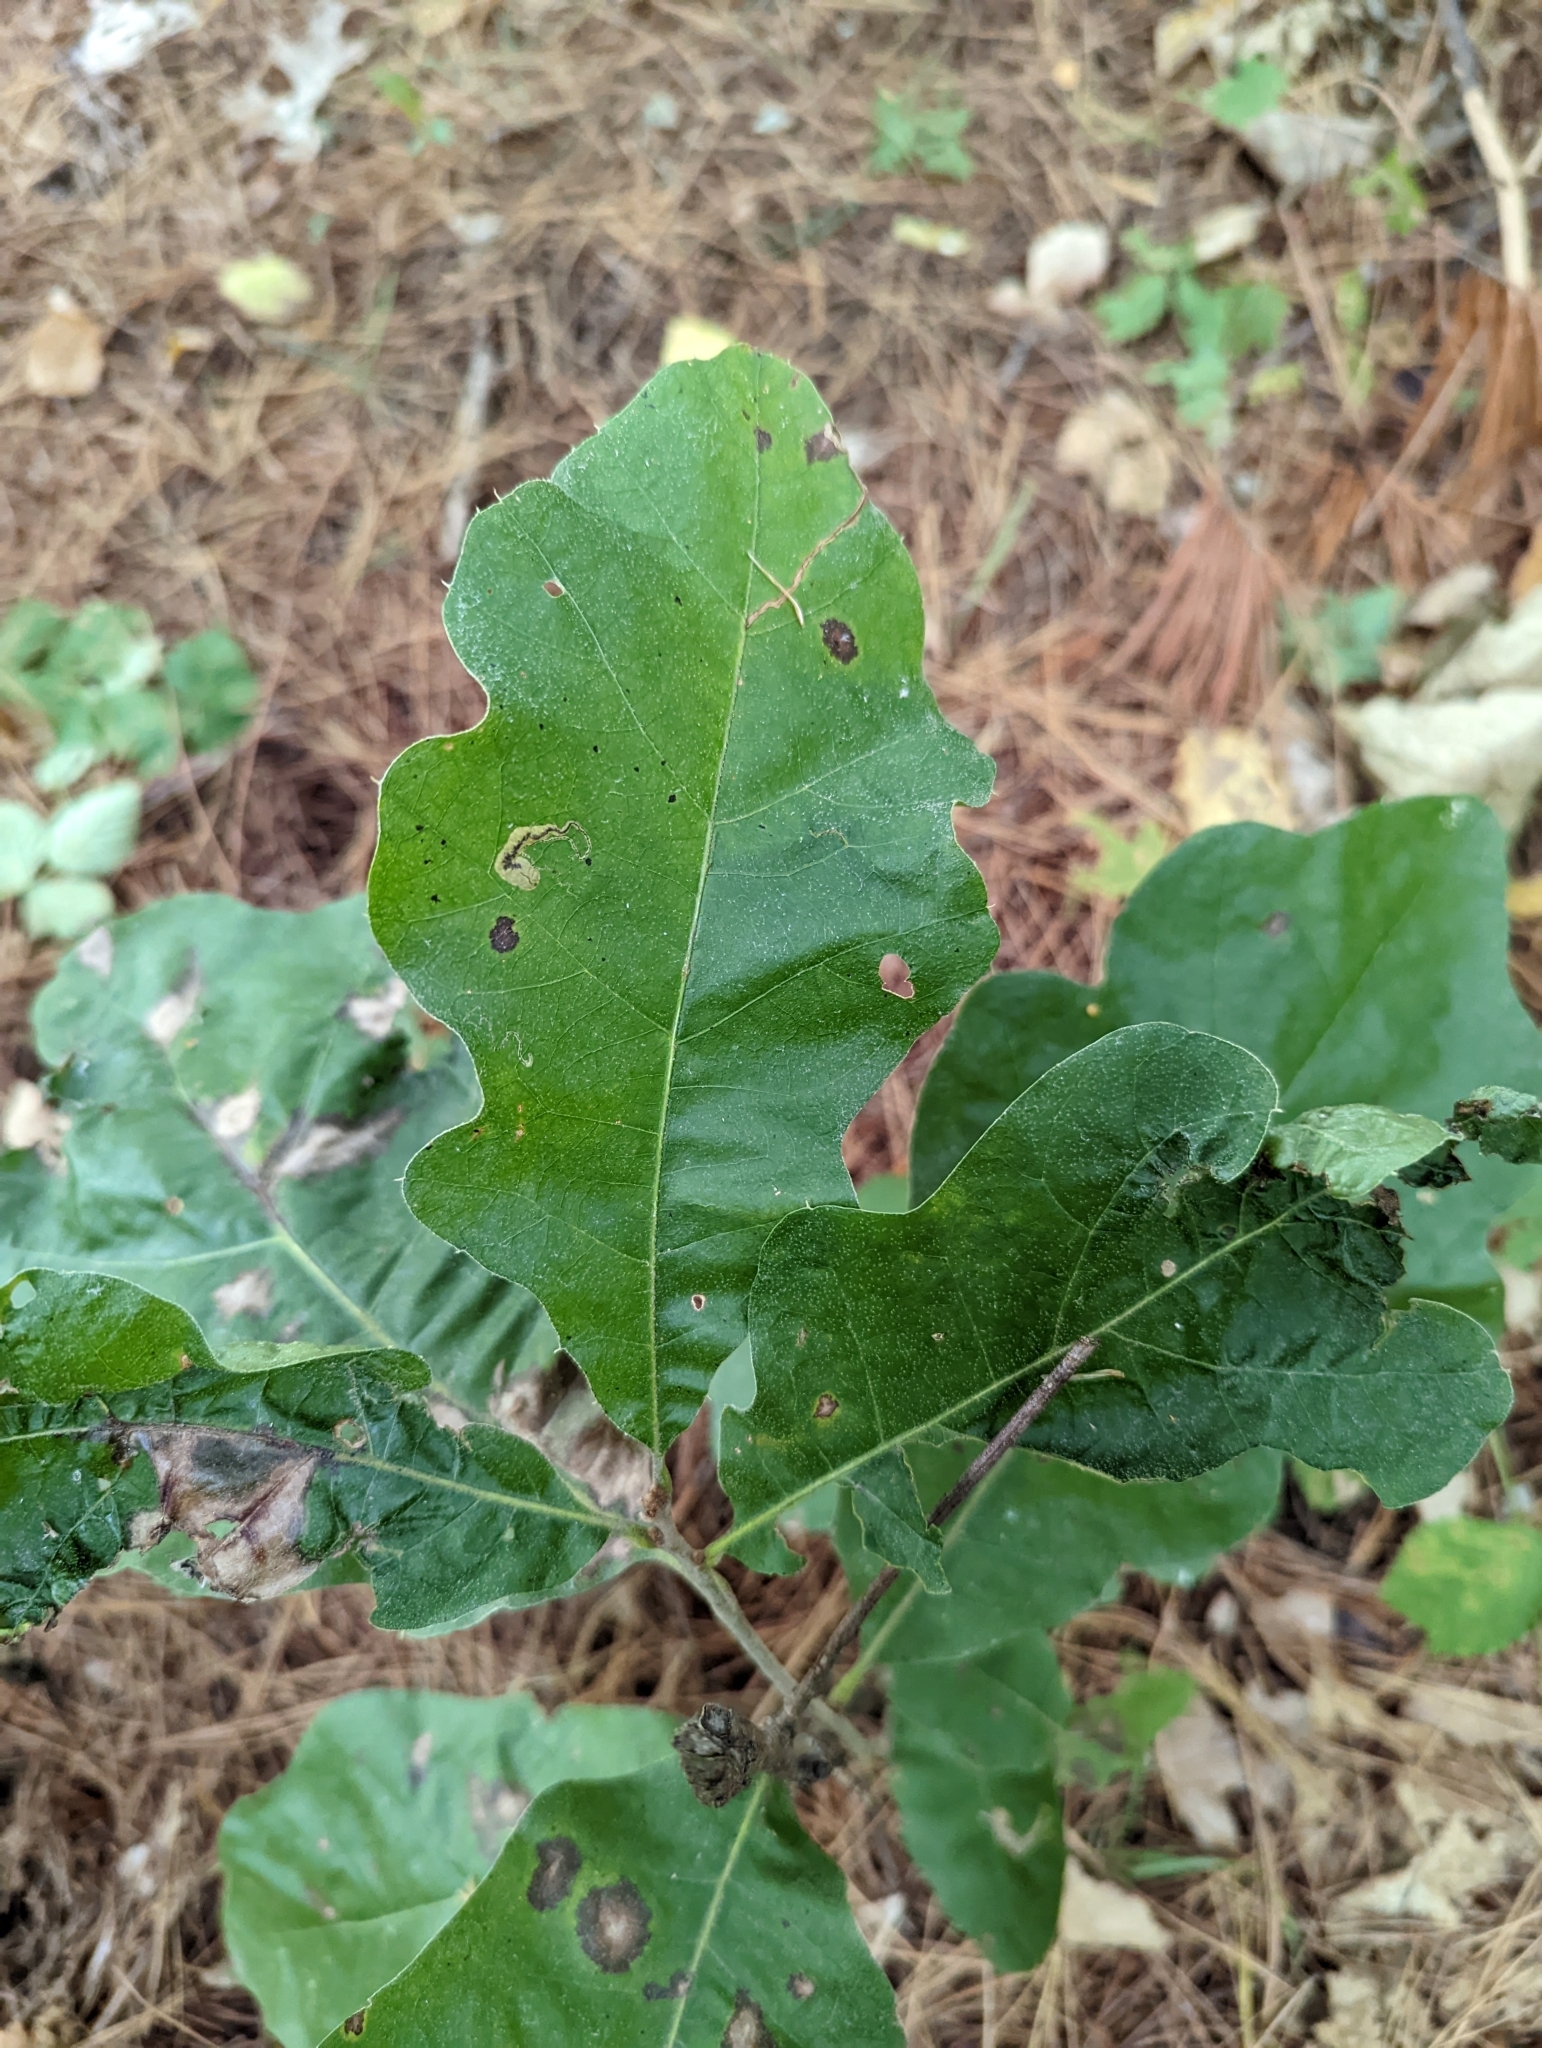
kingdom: Plantae
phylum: Tracheophyta
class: Magnoliopsida
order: Fagales
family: Fagaceae
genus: Quercus
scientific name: Quercus rubra
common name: Red oak
